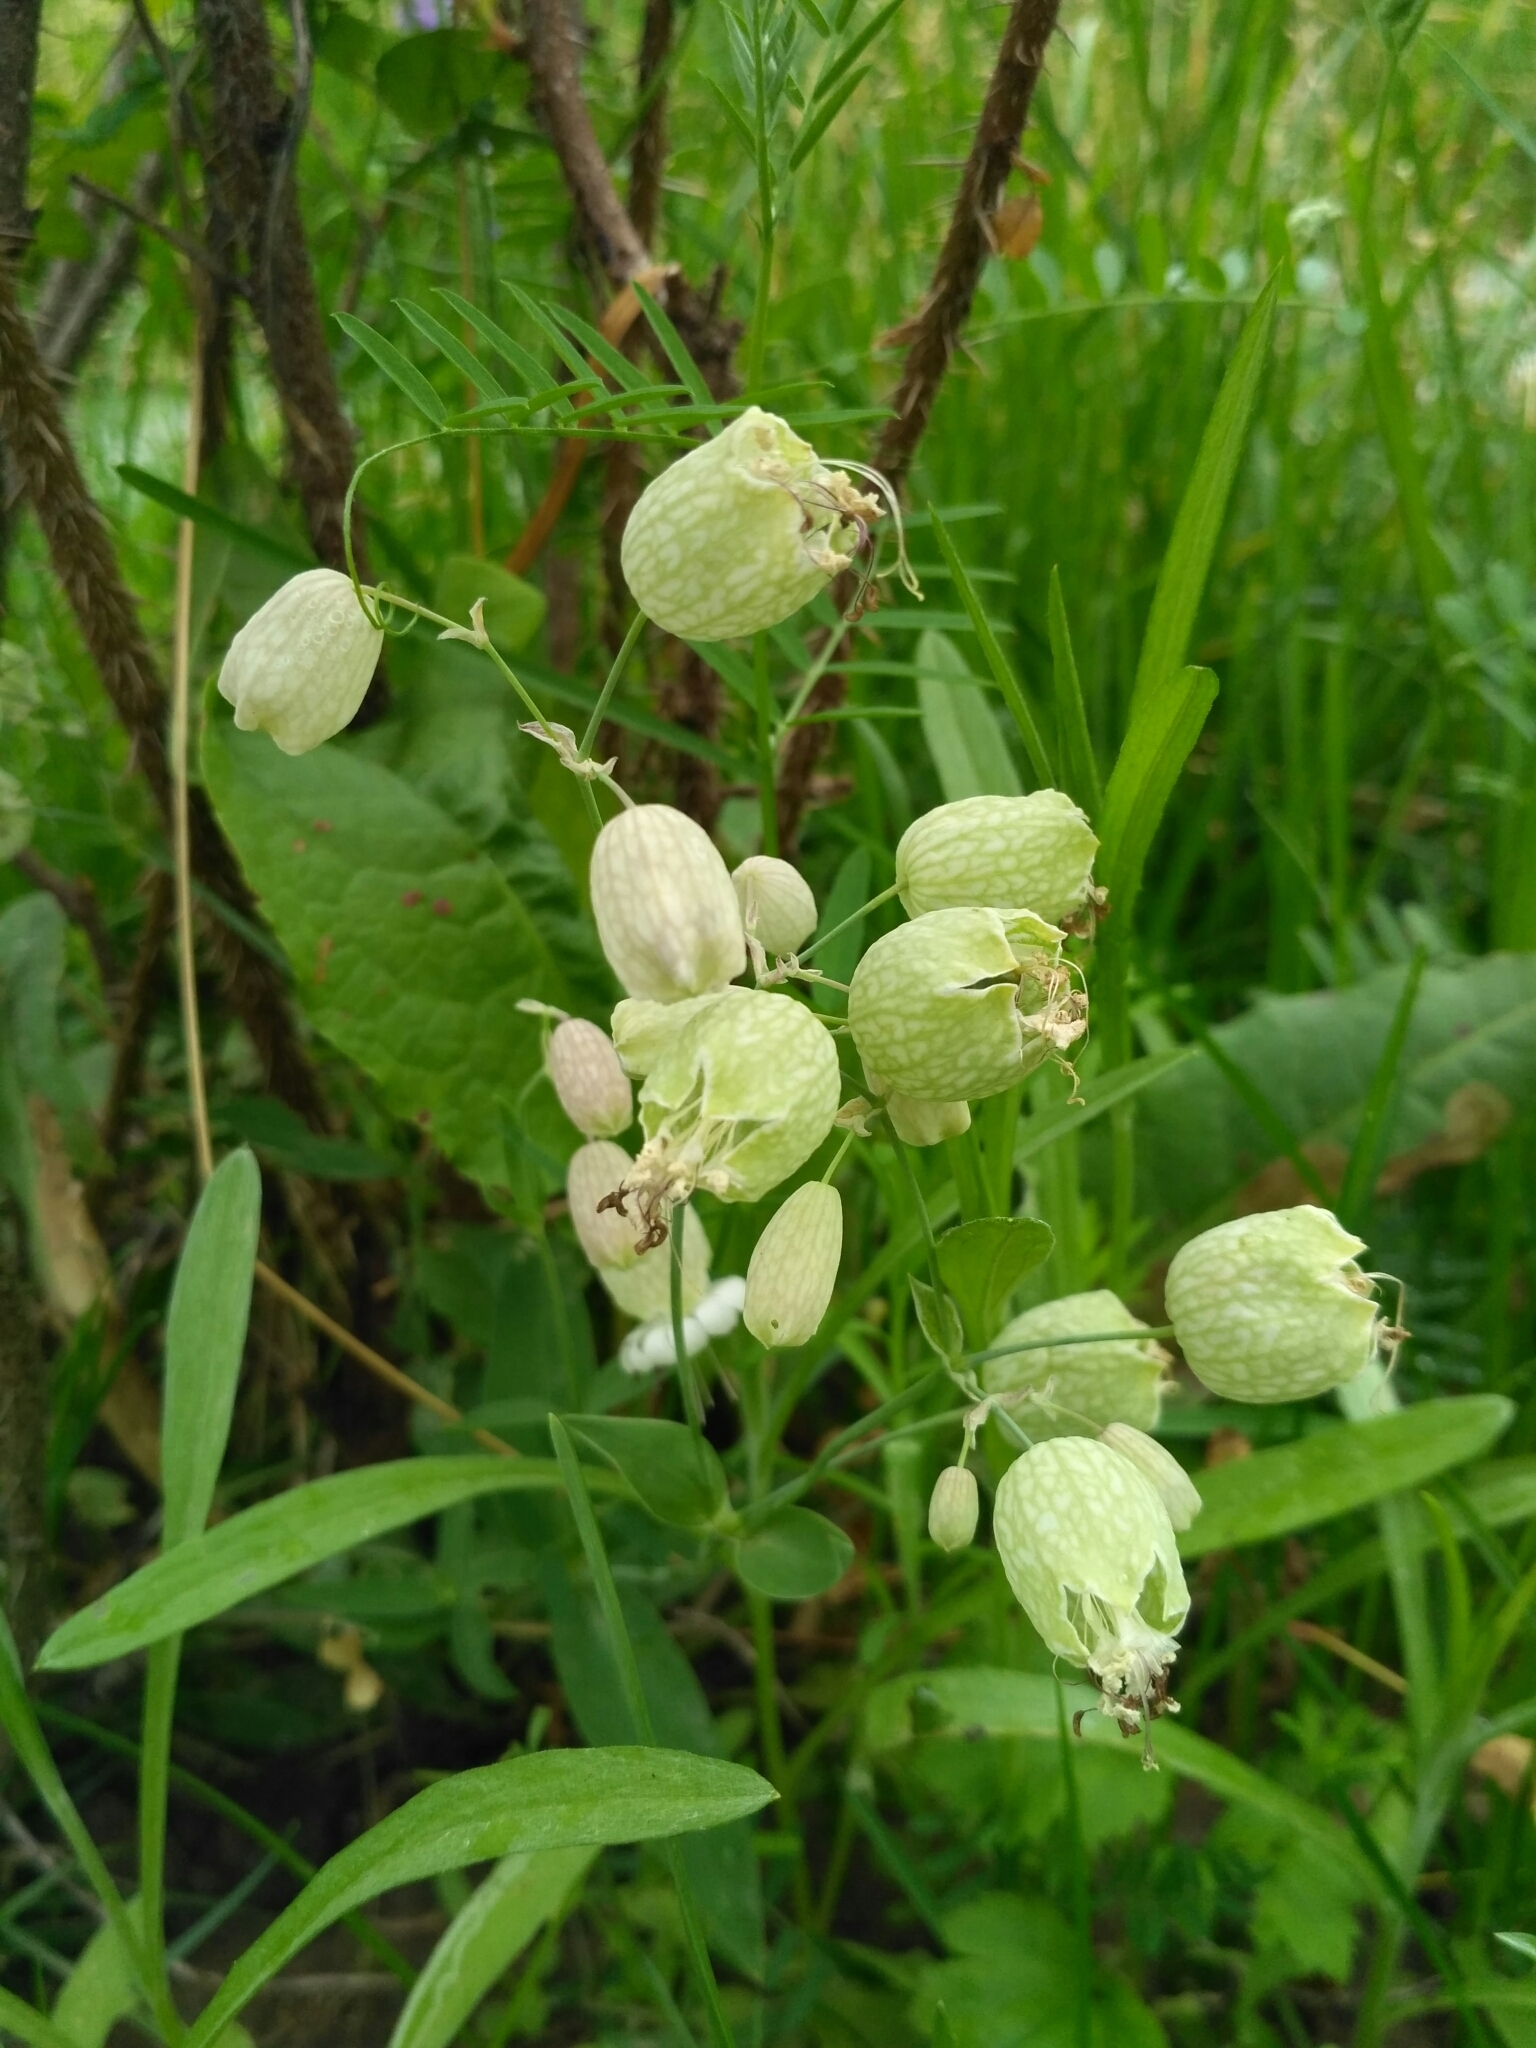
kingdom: Plantae
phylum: Tracheophyta
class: Magnoliopsida
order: Caryophyllales
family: Caryophyllaceae
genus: Silene
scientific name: Silene vulgaris
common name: Bladder campion
